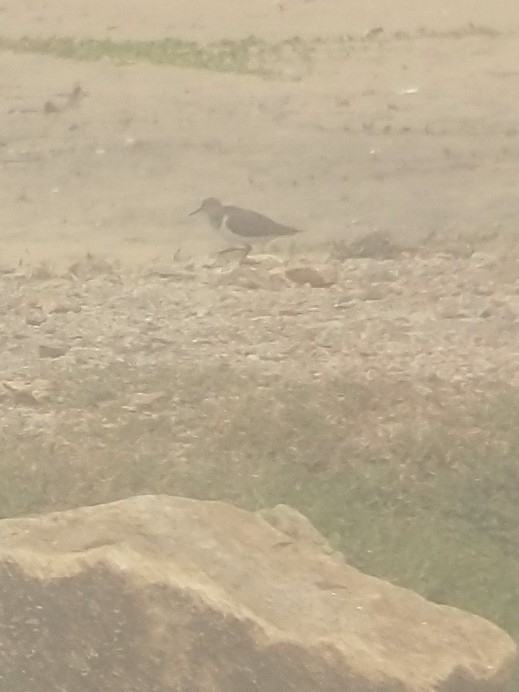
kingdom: Animalia
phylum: Chordata
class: Aves
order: Charadriiformes
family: Scolopacidae
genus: Actitis
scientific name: Actitis hypoleucos
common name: Common sandpiper
